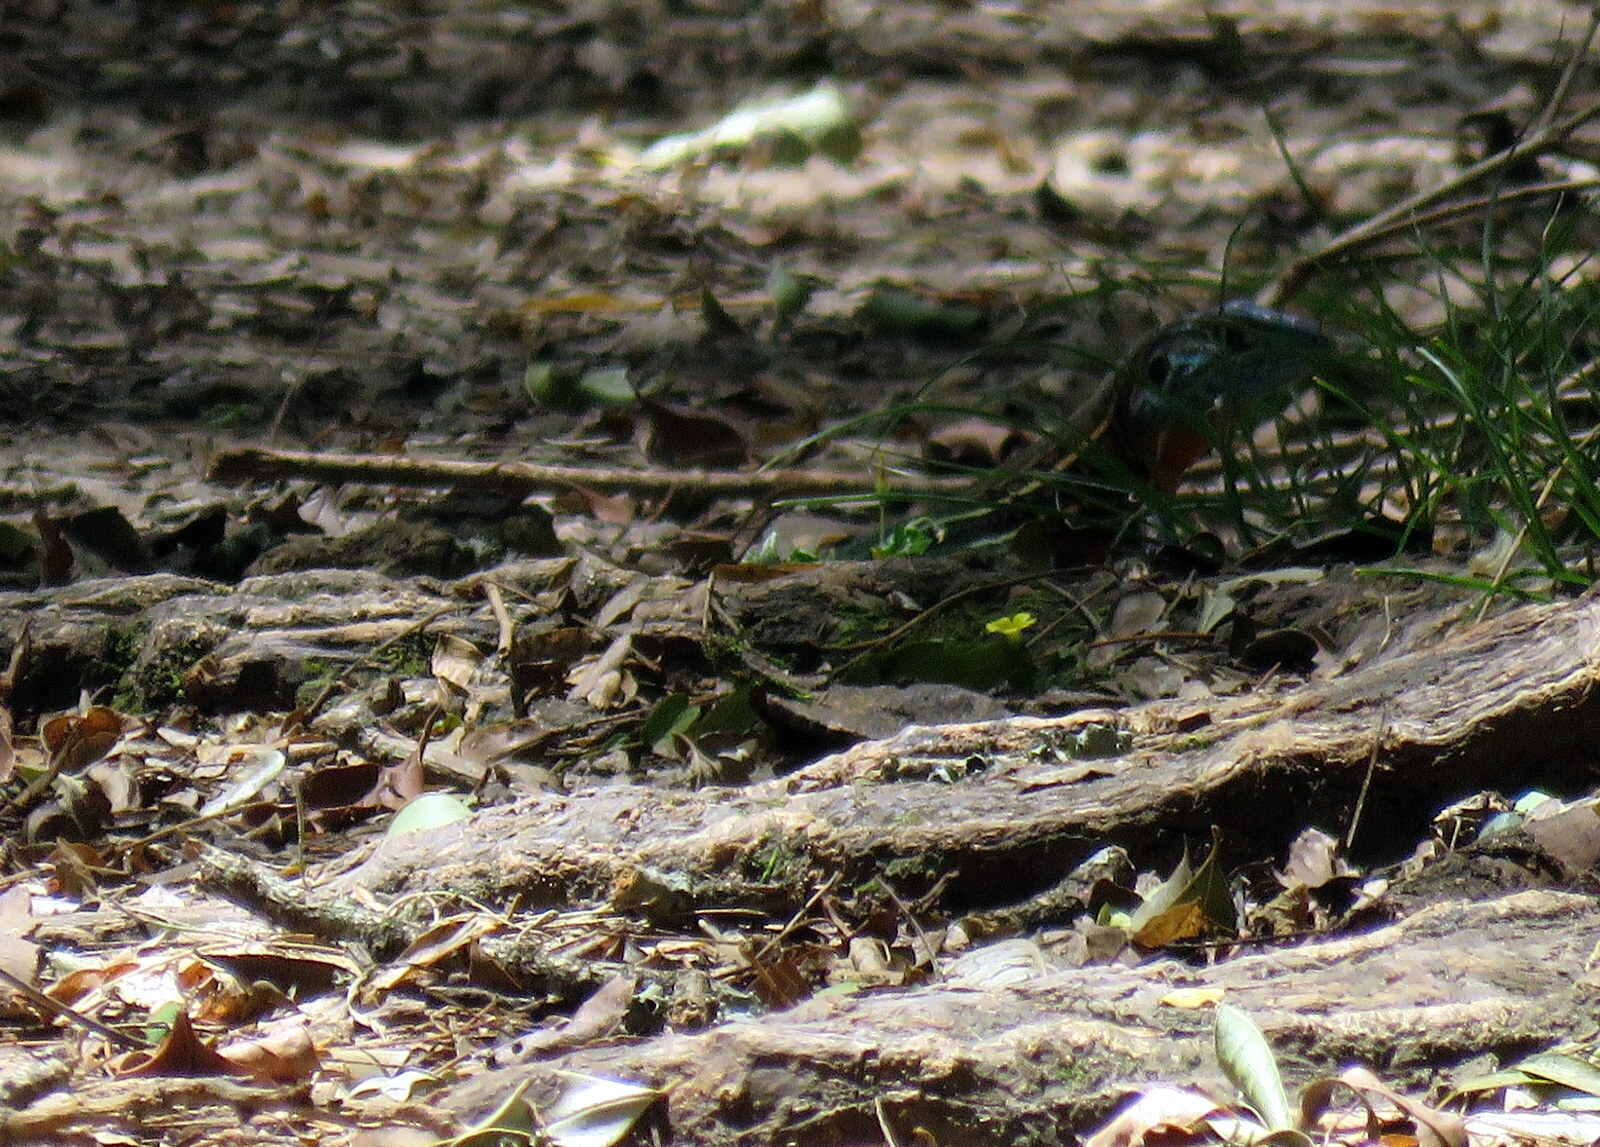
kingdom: Animalia
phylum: Chordata
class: Squamata
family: Teiidae
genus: Teius
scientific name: Teius teyou
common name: Four-toed tegu
